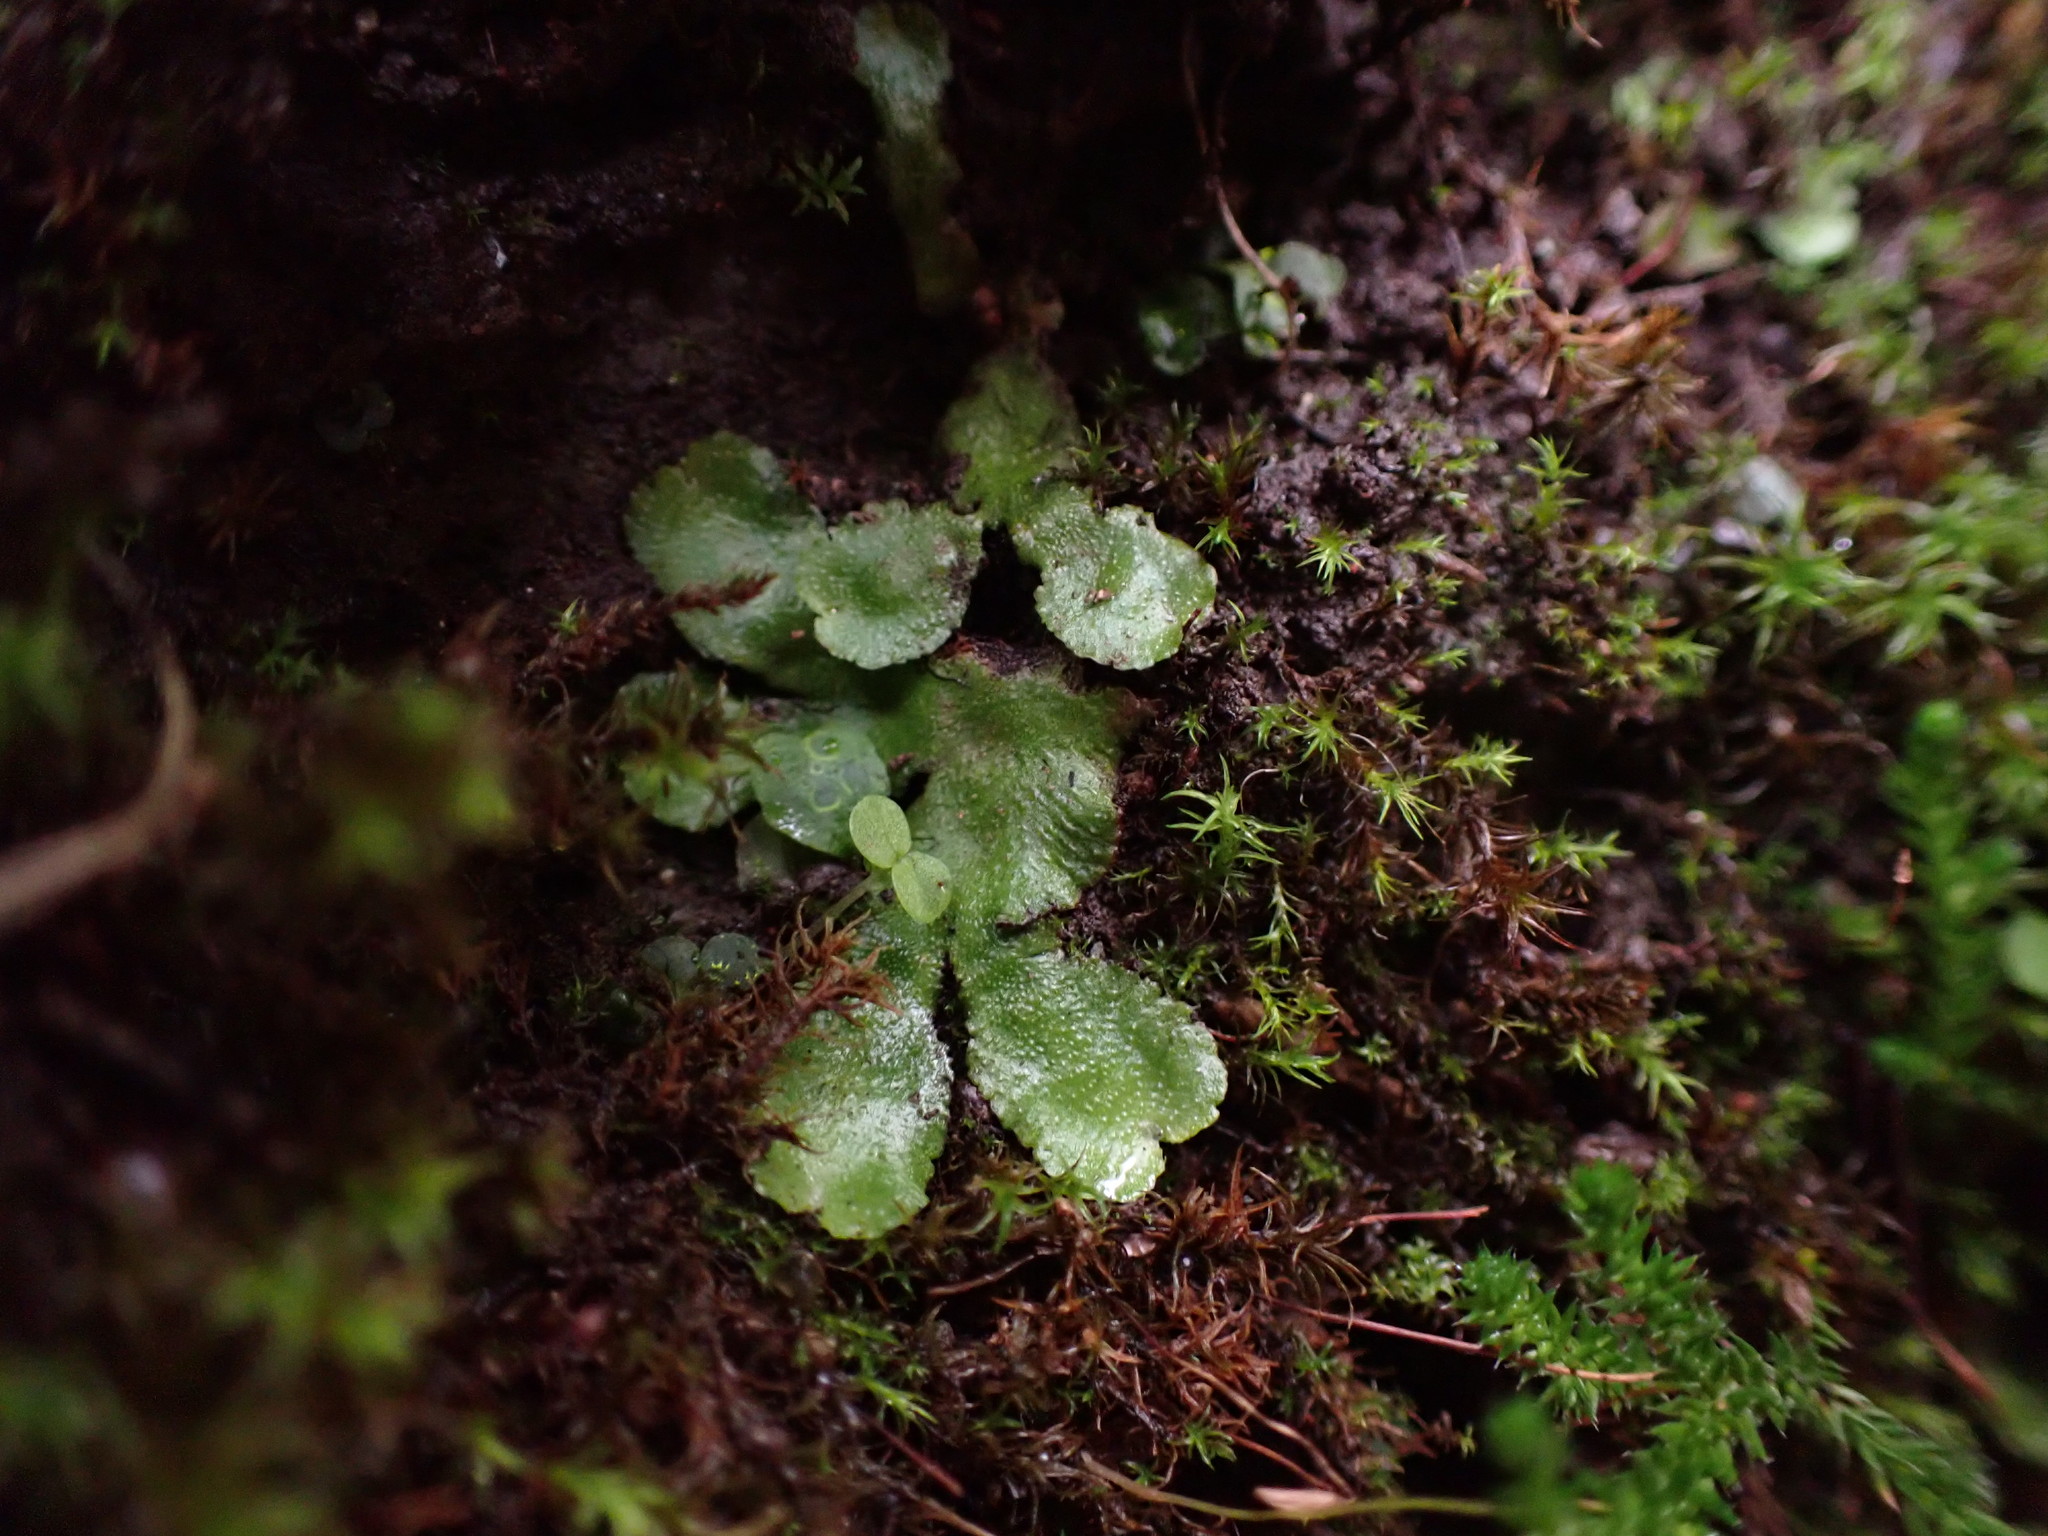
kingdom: Plantae
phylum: Marchantiophyta
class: Marchantiopsida
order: Marchantiales
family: Aytoniaceae
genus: Reboulia
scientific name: Reboulia hemisphaerica
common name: Purple-margined liverwort
